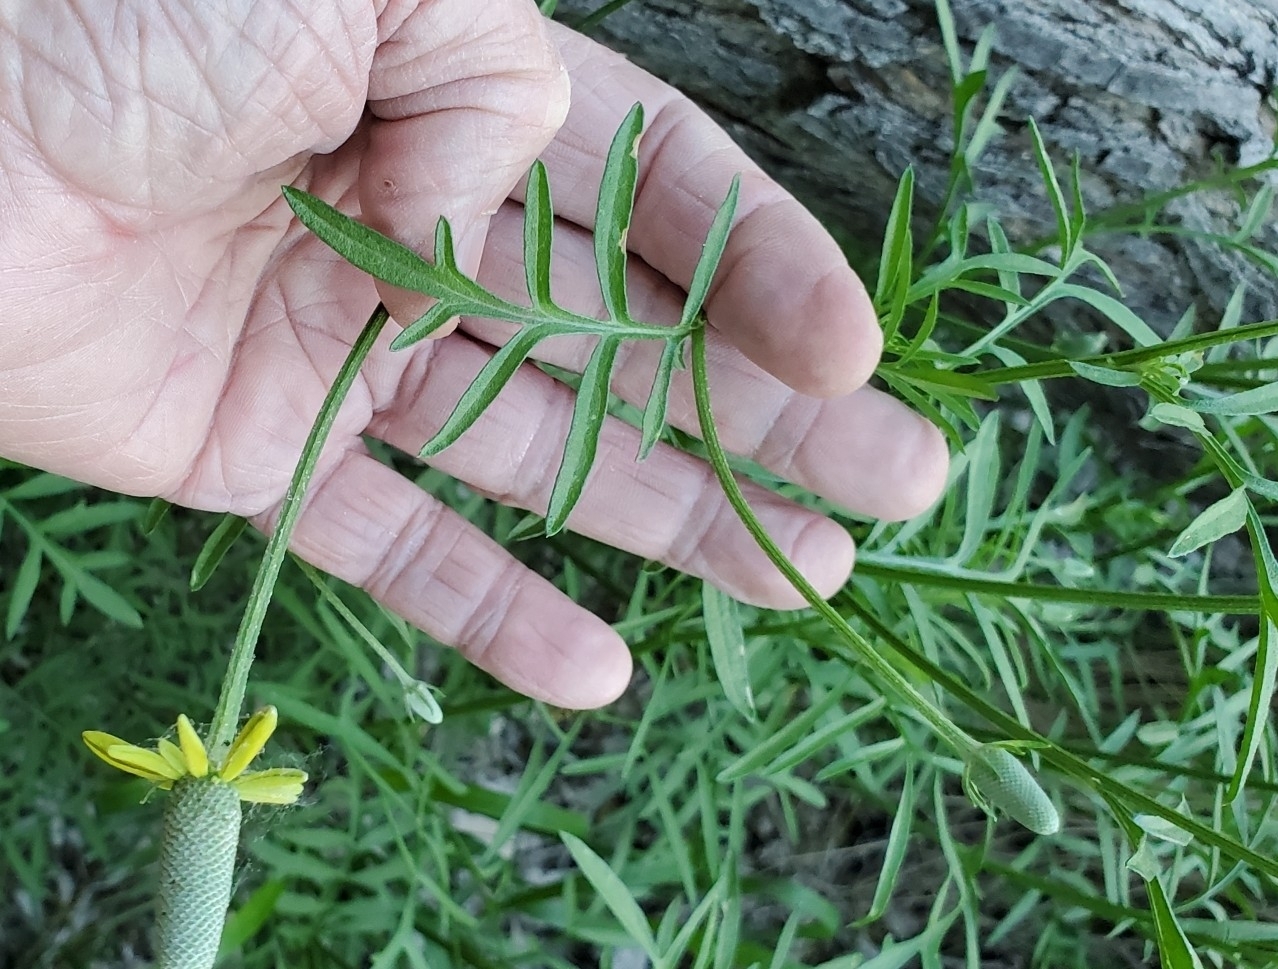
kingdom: Plantae
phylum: Tracheophyta
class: Magnoliopsida
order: Asterales
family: Asteraceae
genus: Ratibida
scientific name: Ratibida columnifera
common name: Prairie coneflower
